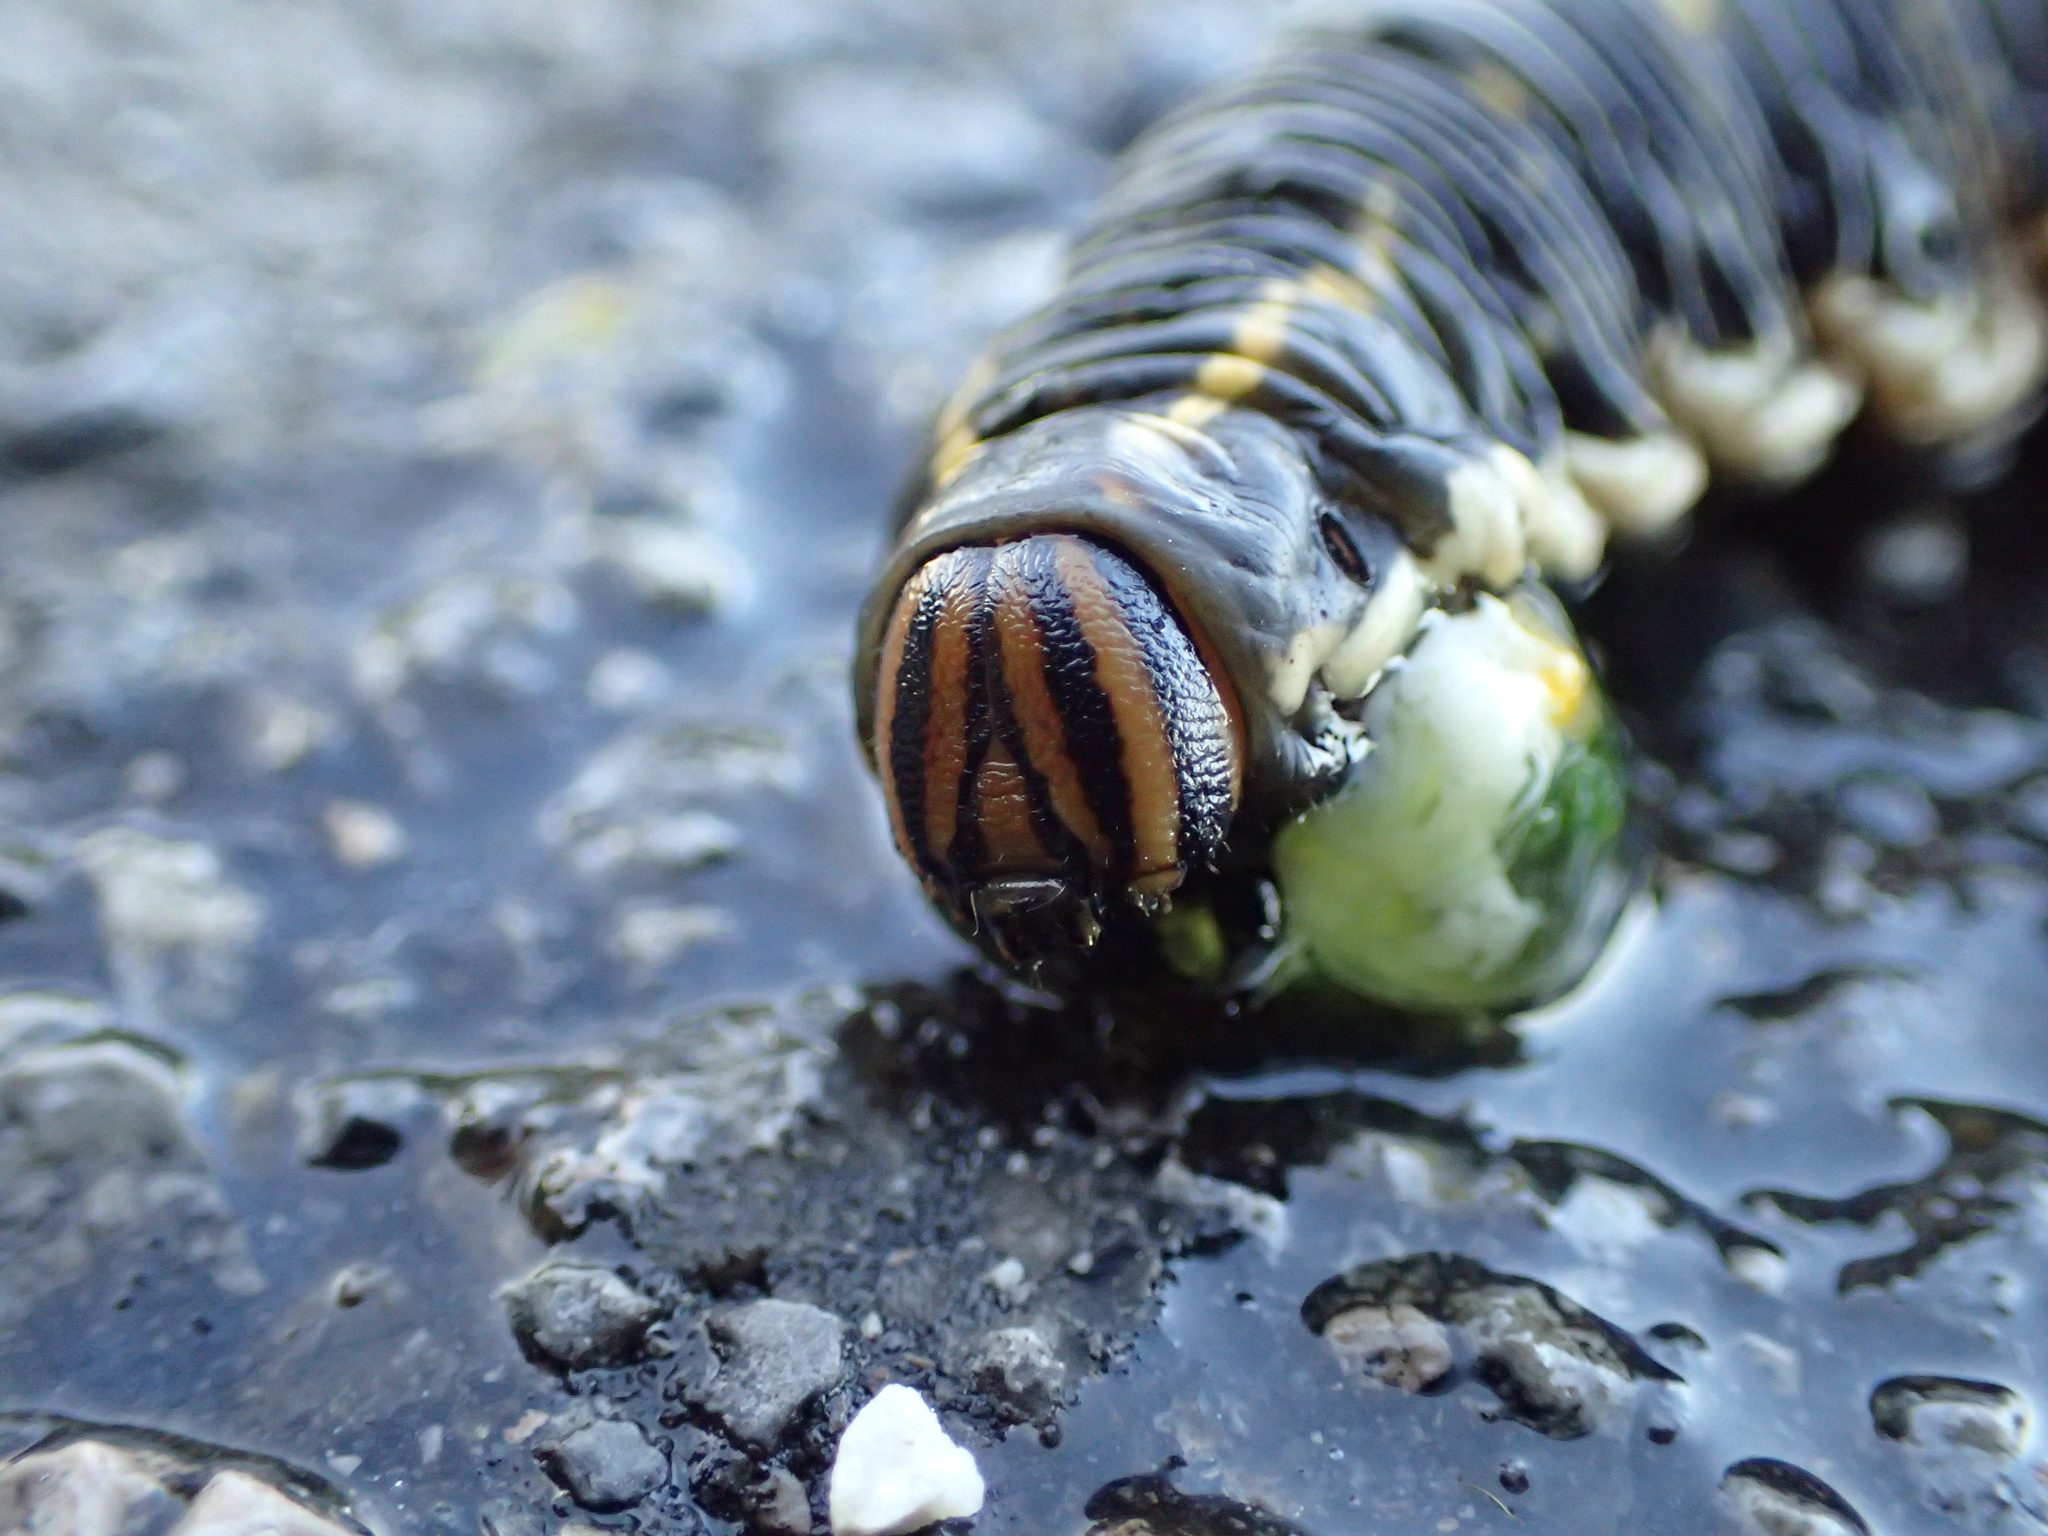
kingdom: Animalia
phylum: Arthropoda
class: Insecta
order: Lepidoptera
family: Sphingidae
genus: Agrius
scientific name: Agrius convolvuli
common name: Convolvulus hawkmoth
